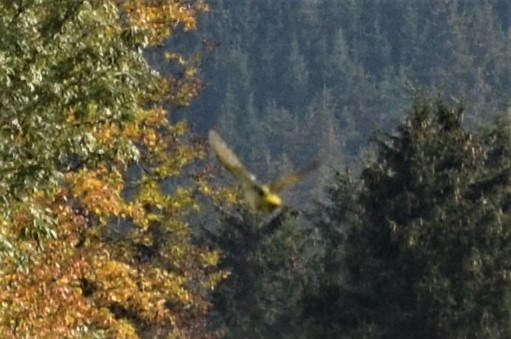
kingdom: Animalia
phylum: Chordata
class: Aves
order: Piciformes
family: Picidae
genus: Picus
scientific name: Picus viridis
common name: European green woodpecker
